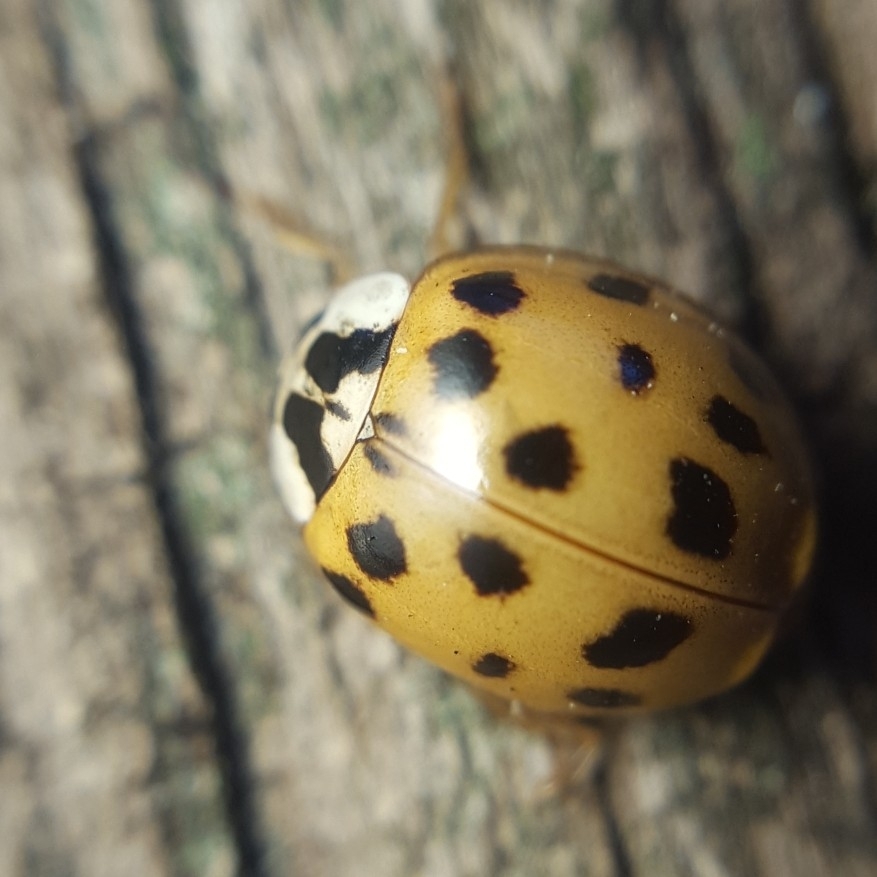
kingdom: Animalia
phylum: Arthropoda
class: Insecta
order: Coleoptera
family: Coccinellidae
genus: Harmonia
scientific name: Harmonia axyridis
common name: Harlequin ladybird
